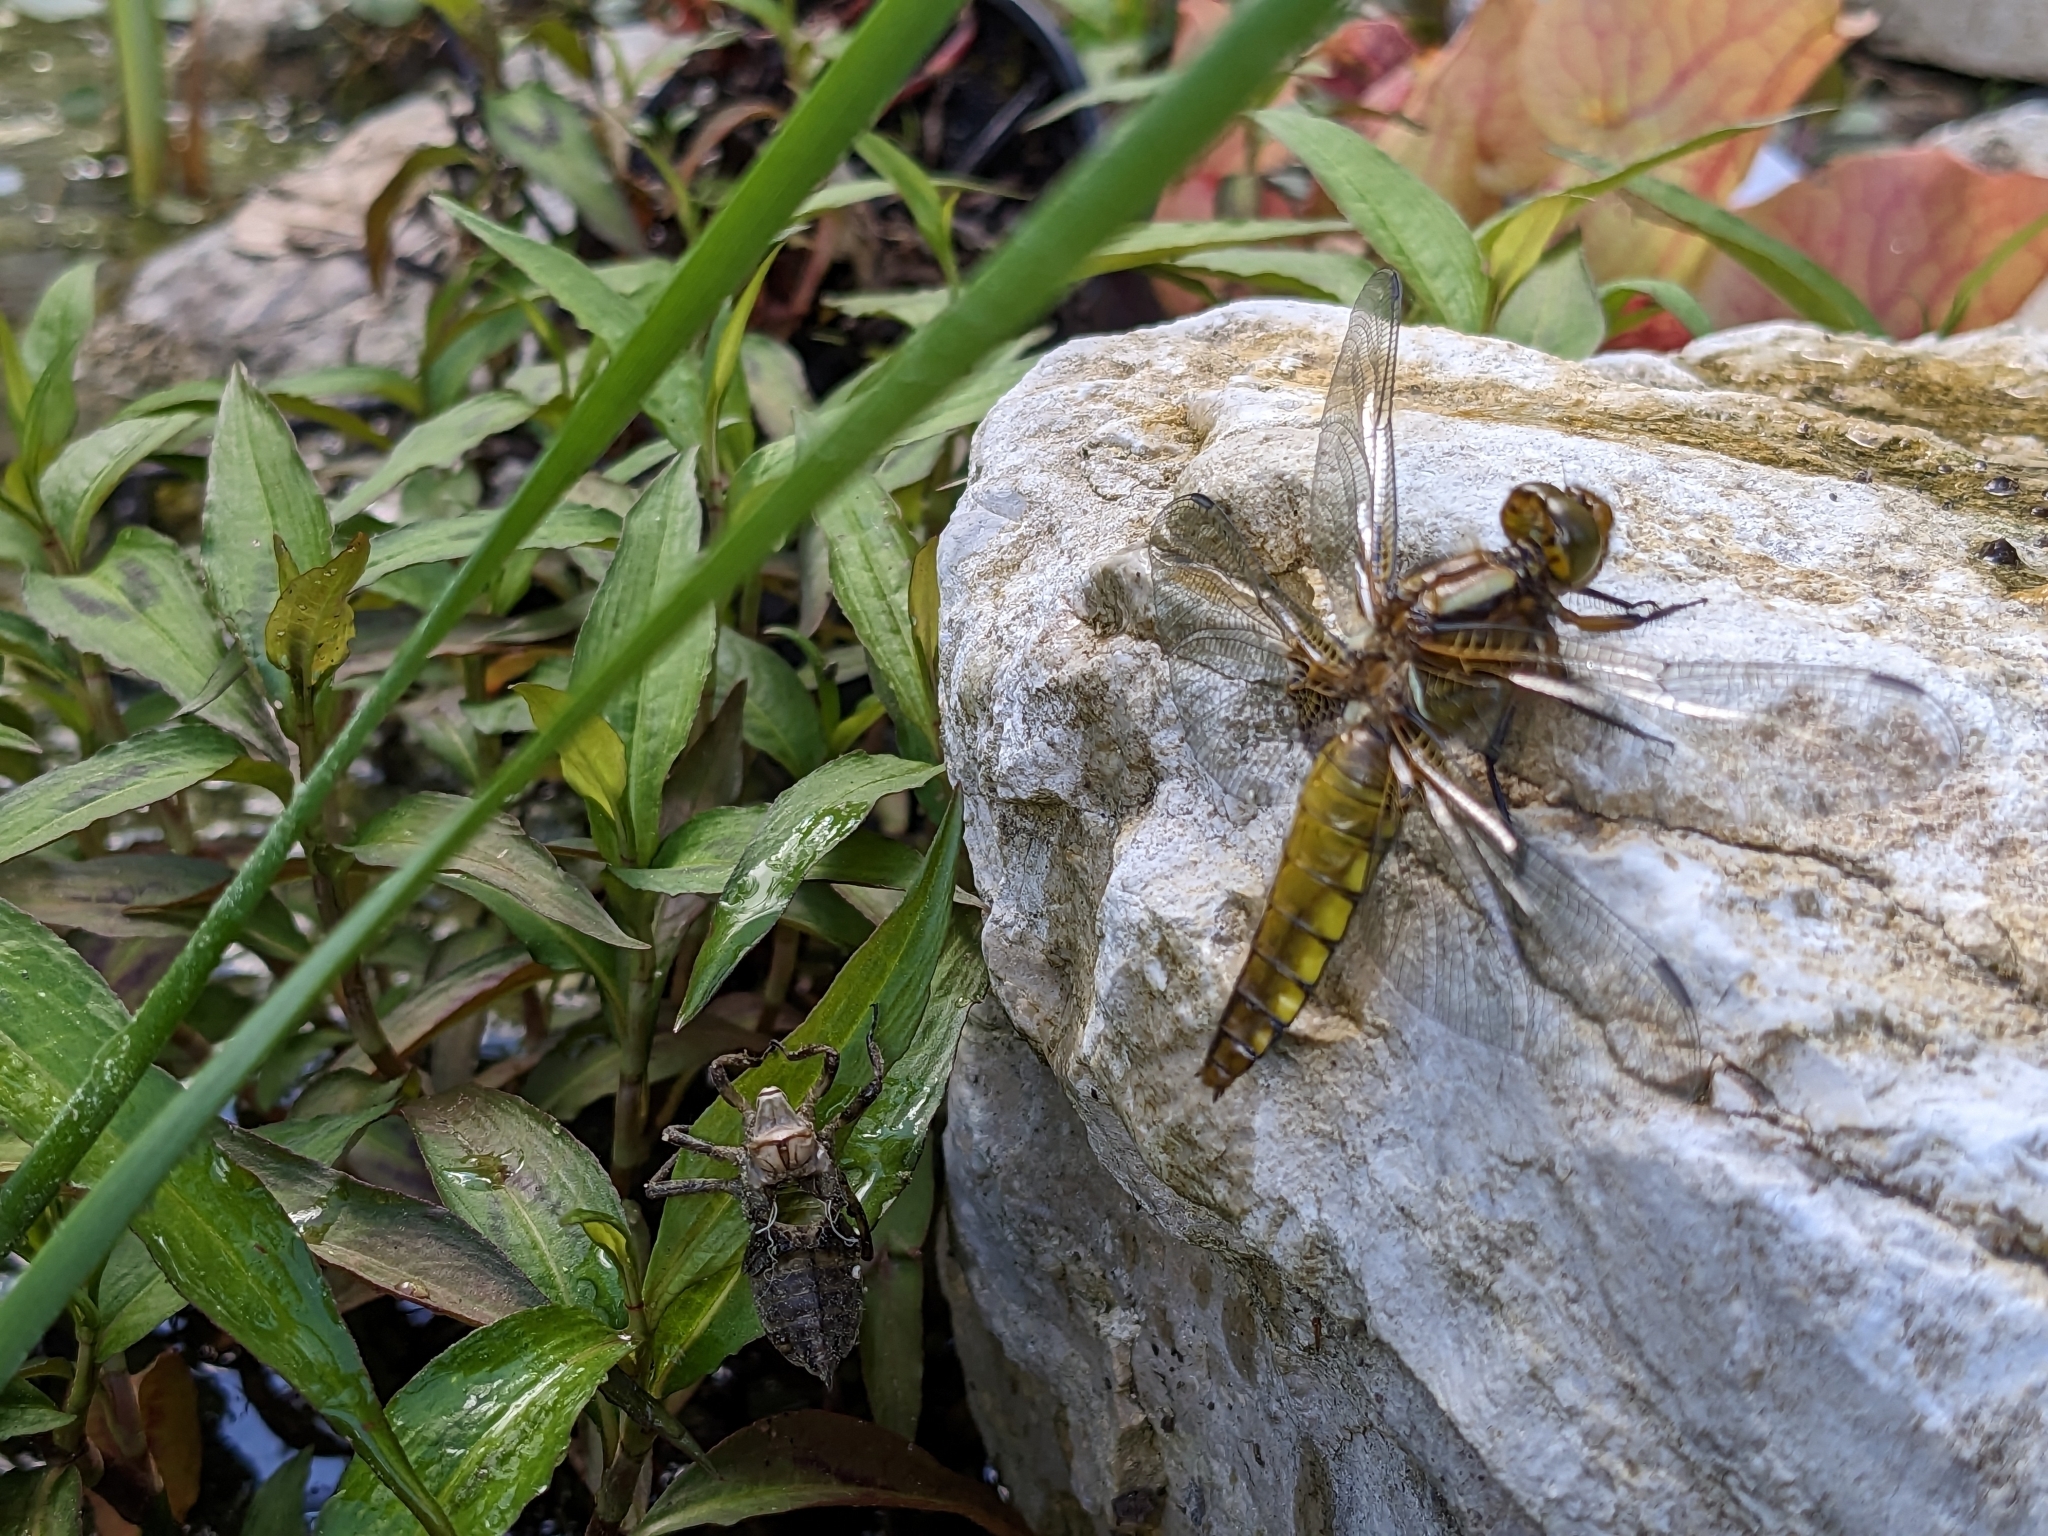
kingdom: Animalia
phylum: Arthropoda
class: Insecta
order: Odonata
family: Libellulidae
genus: Libellula
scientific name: Libellula depressa
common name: Broad-bodied chaser
